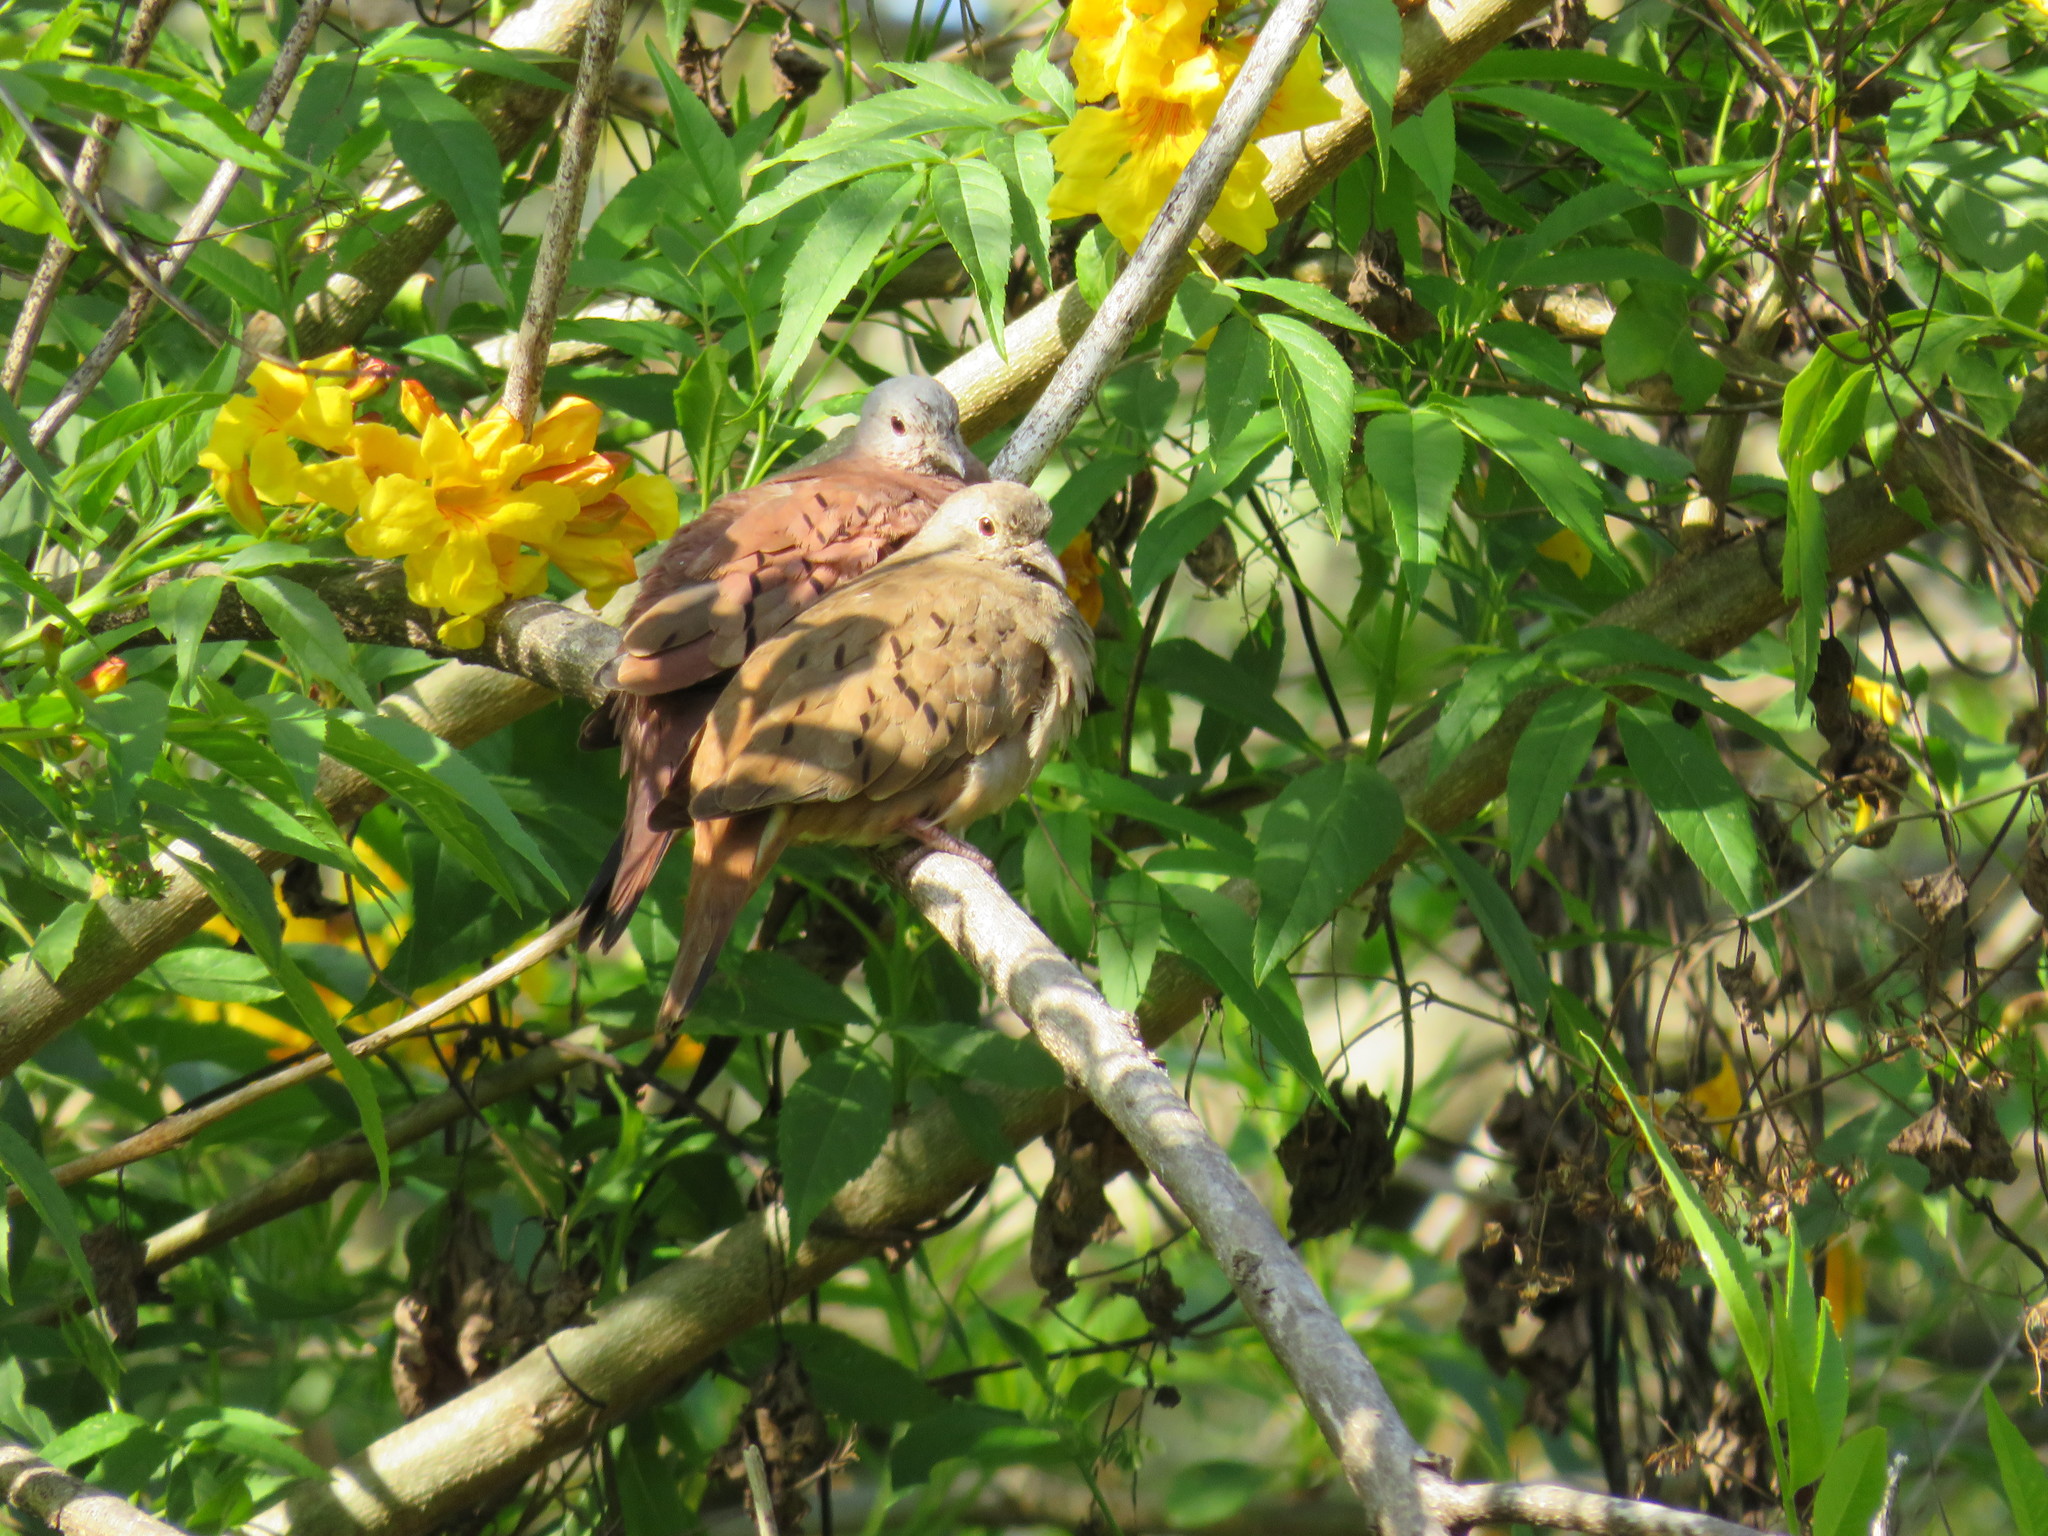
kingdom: Animalia
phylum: Chordata
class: Aves
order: Columbiformes
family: Columbidae
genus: Columbina
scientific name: Columbina talpacoti
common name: Ruddy ground dove
